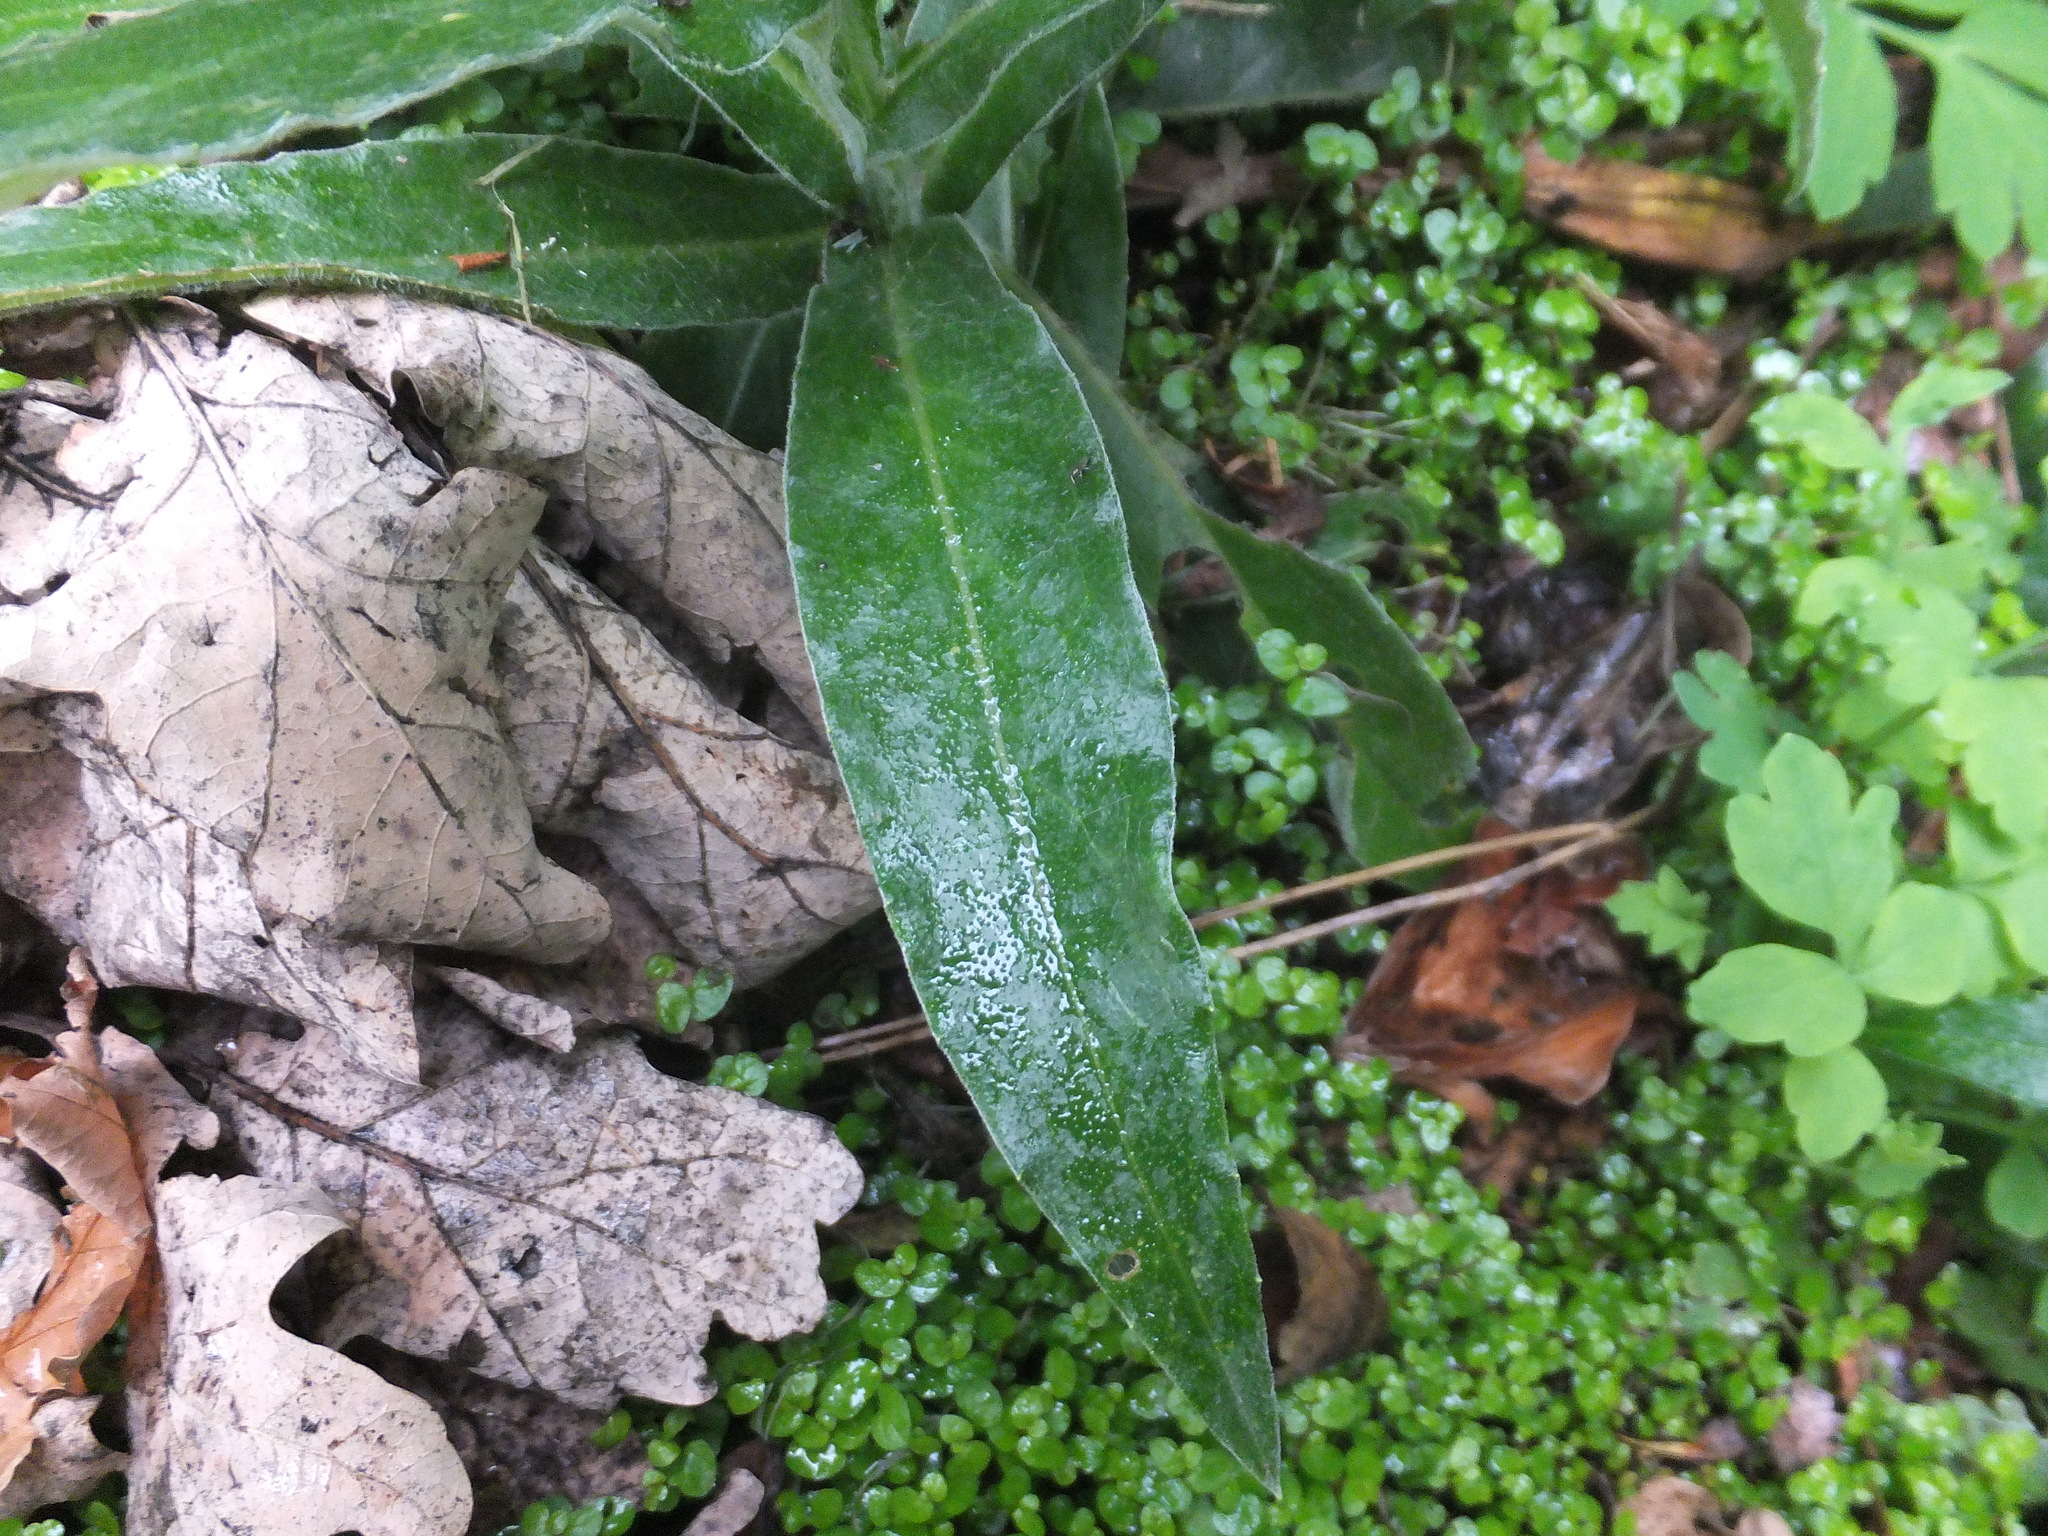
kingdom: Plantae
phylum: Tracheophyta
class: Magnoliopsida
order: Asterales
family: Asteraceae
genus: Centaurea
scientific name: Centaurea montana
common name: Perennial cornflower
